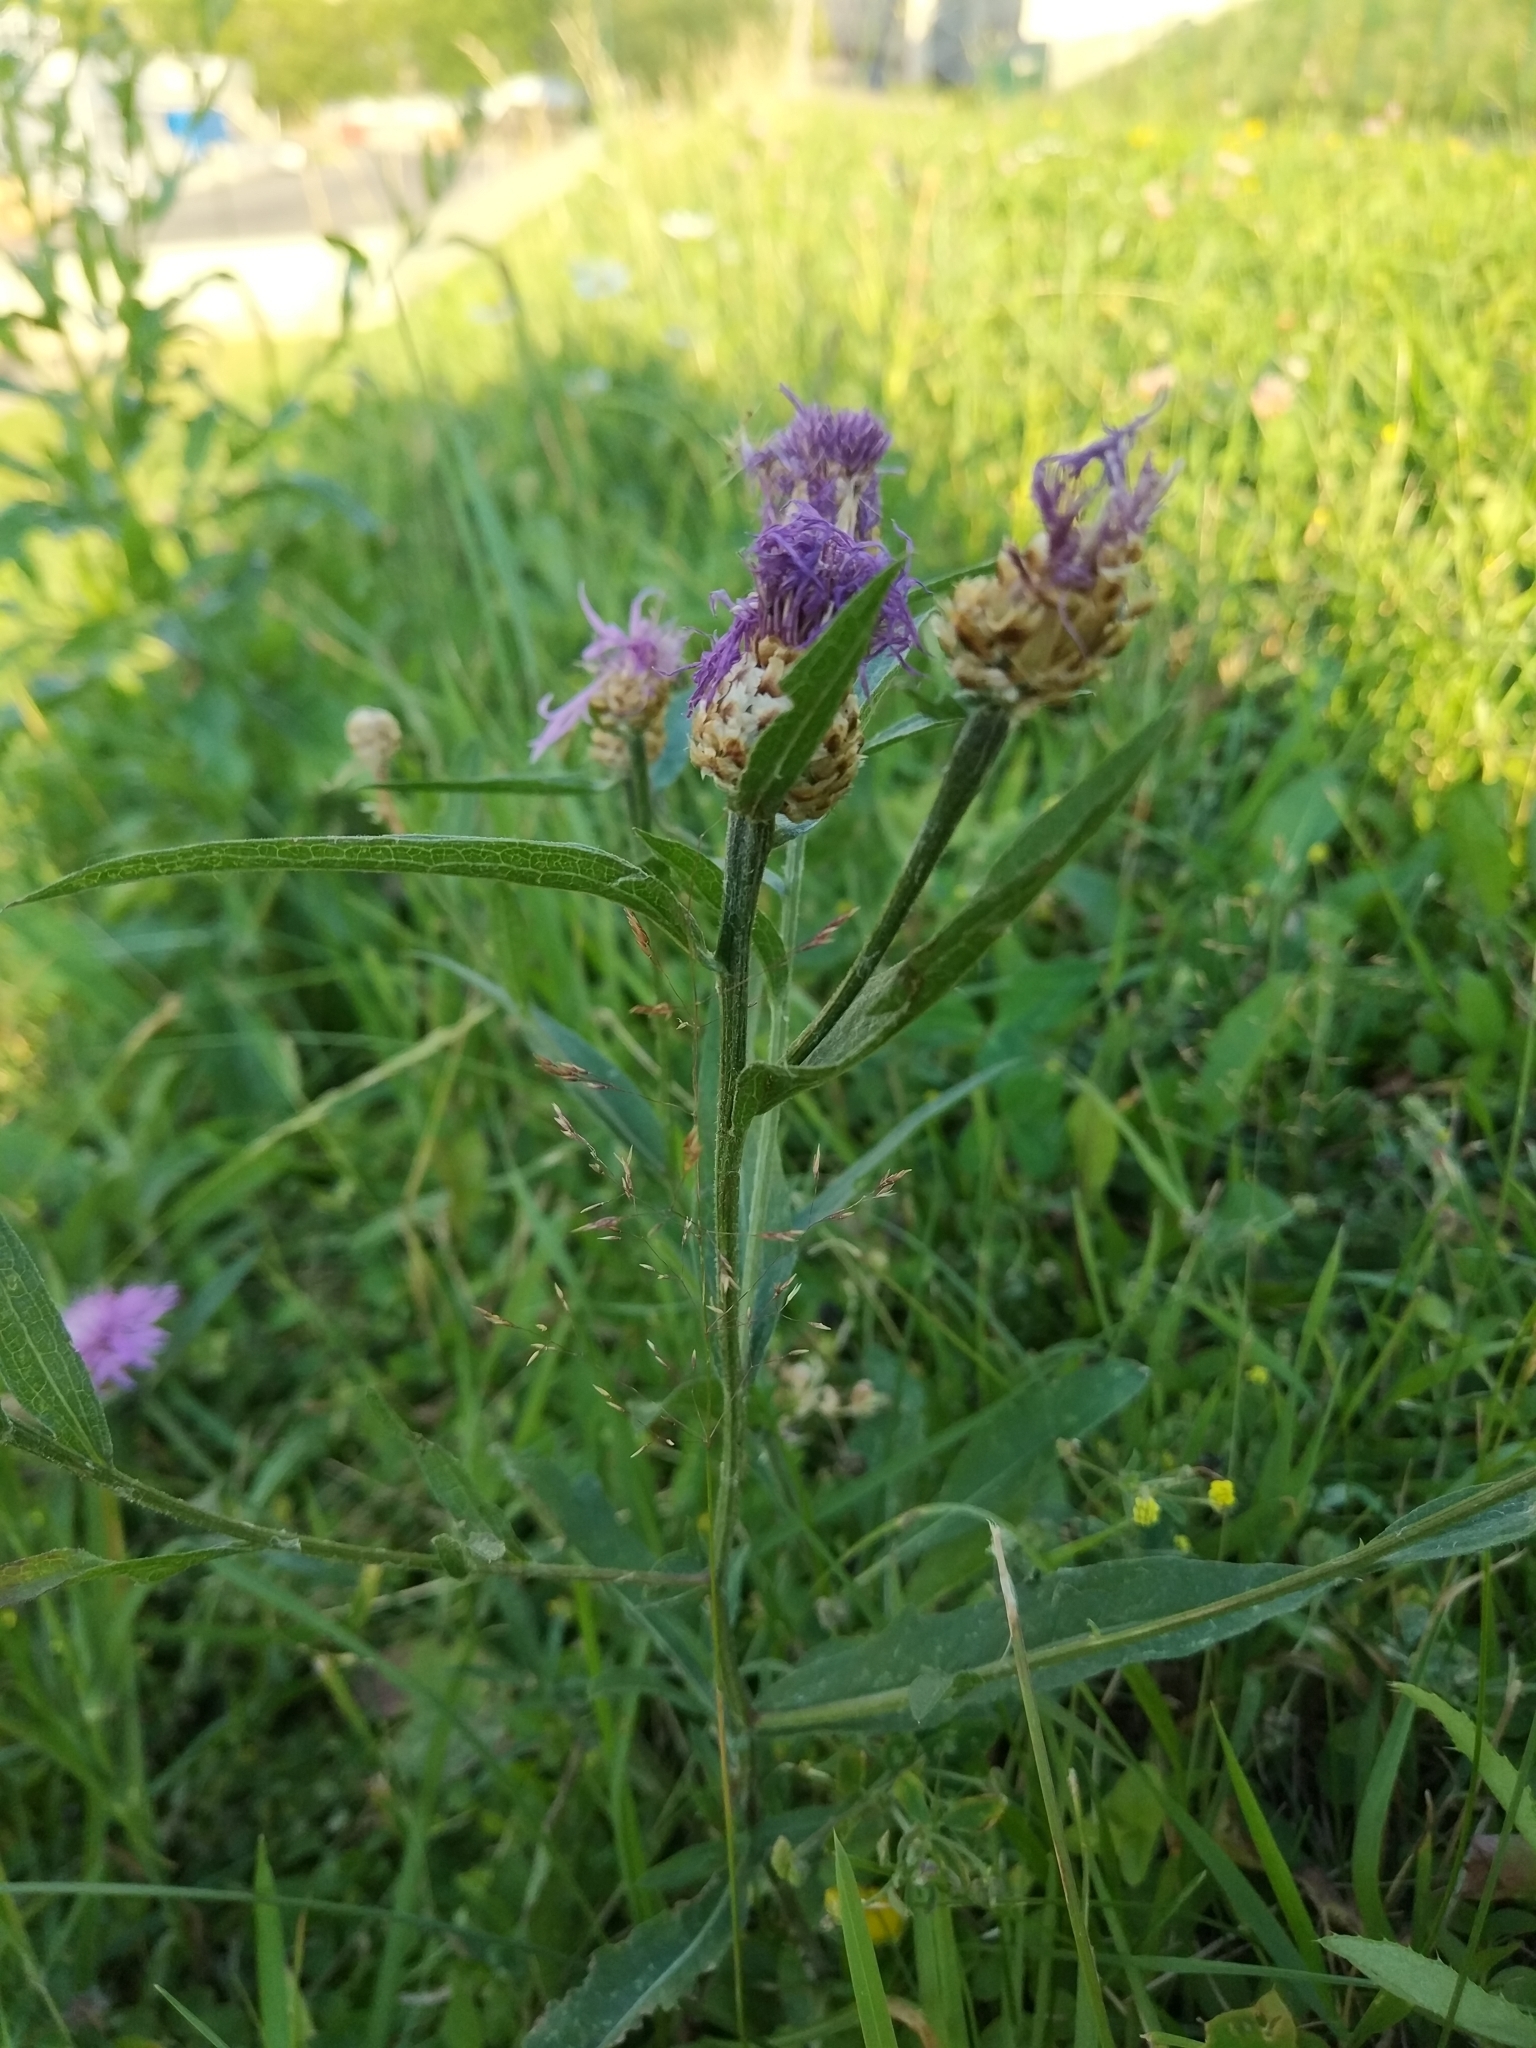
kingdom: Plantae
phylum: Tracheophyta
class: Magnoliopsida
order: Asterales
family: Asteraceae
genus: Centaurea
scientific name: Centaurea jacea
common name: Brown knapweed
